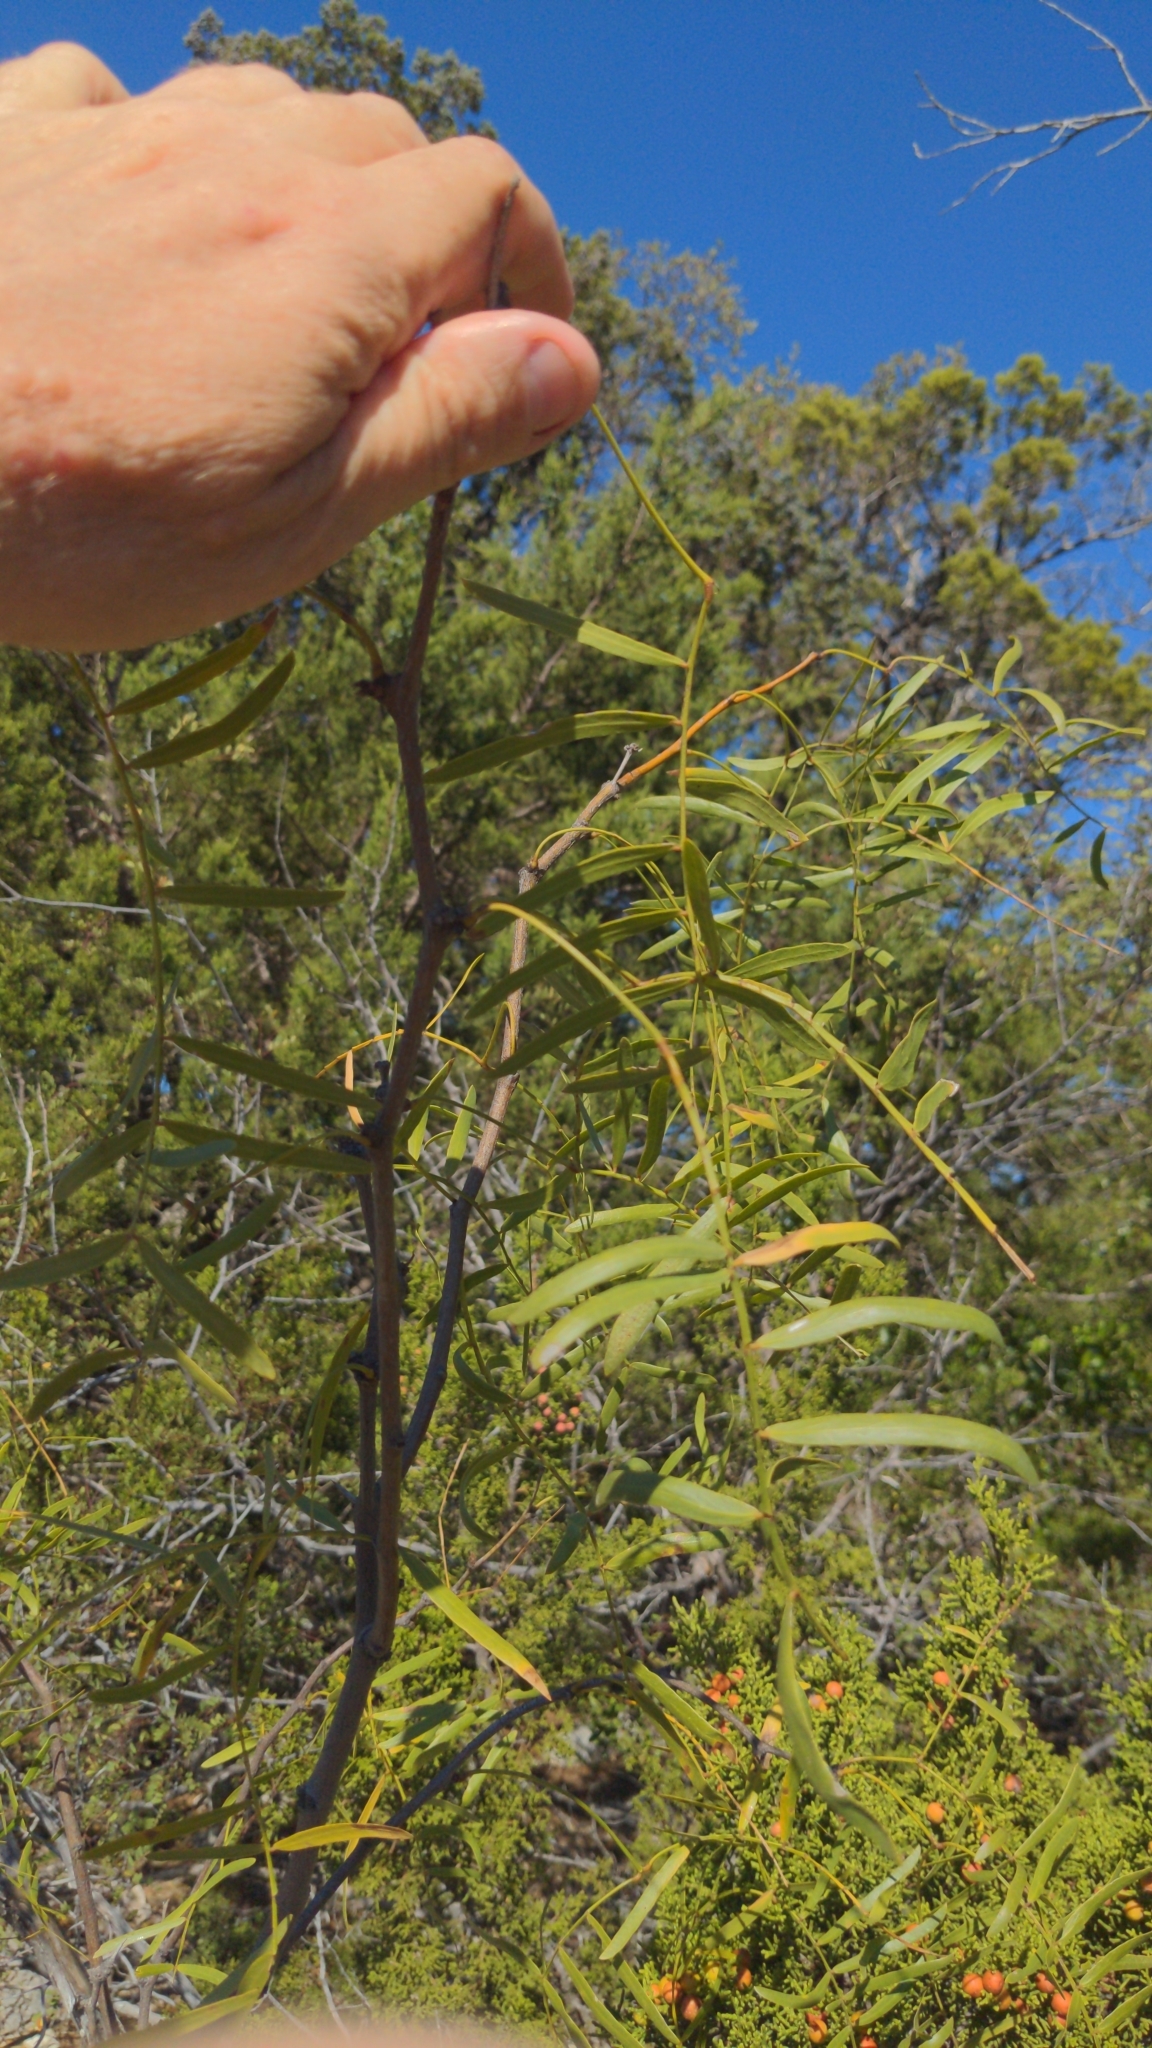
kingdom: Plantae
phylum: Tracheophyta
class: Magnoliopsida
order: Fabales
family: Fabaceae
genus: Prosopis
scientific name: Prosopis glandulosa
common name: Honey mesquite
